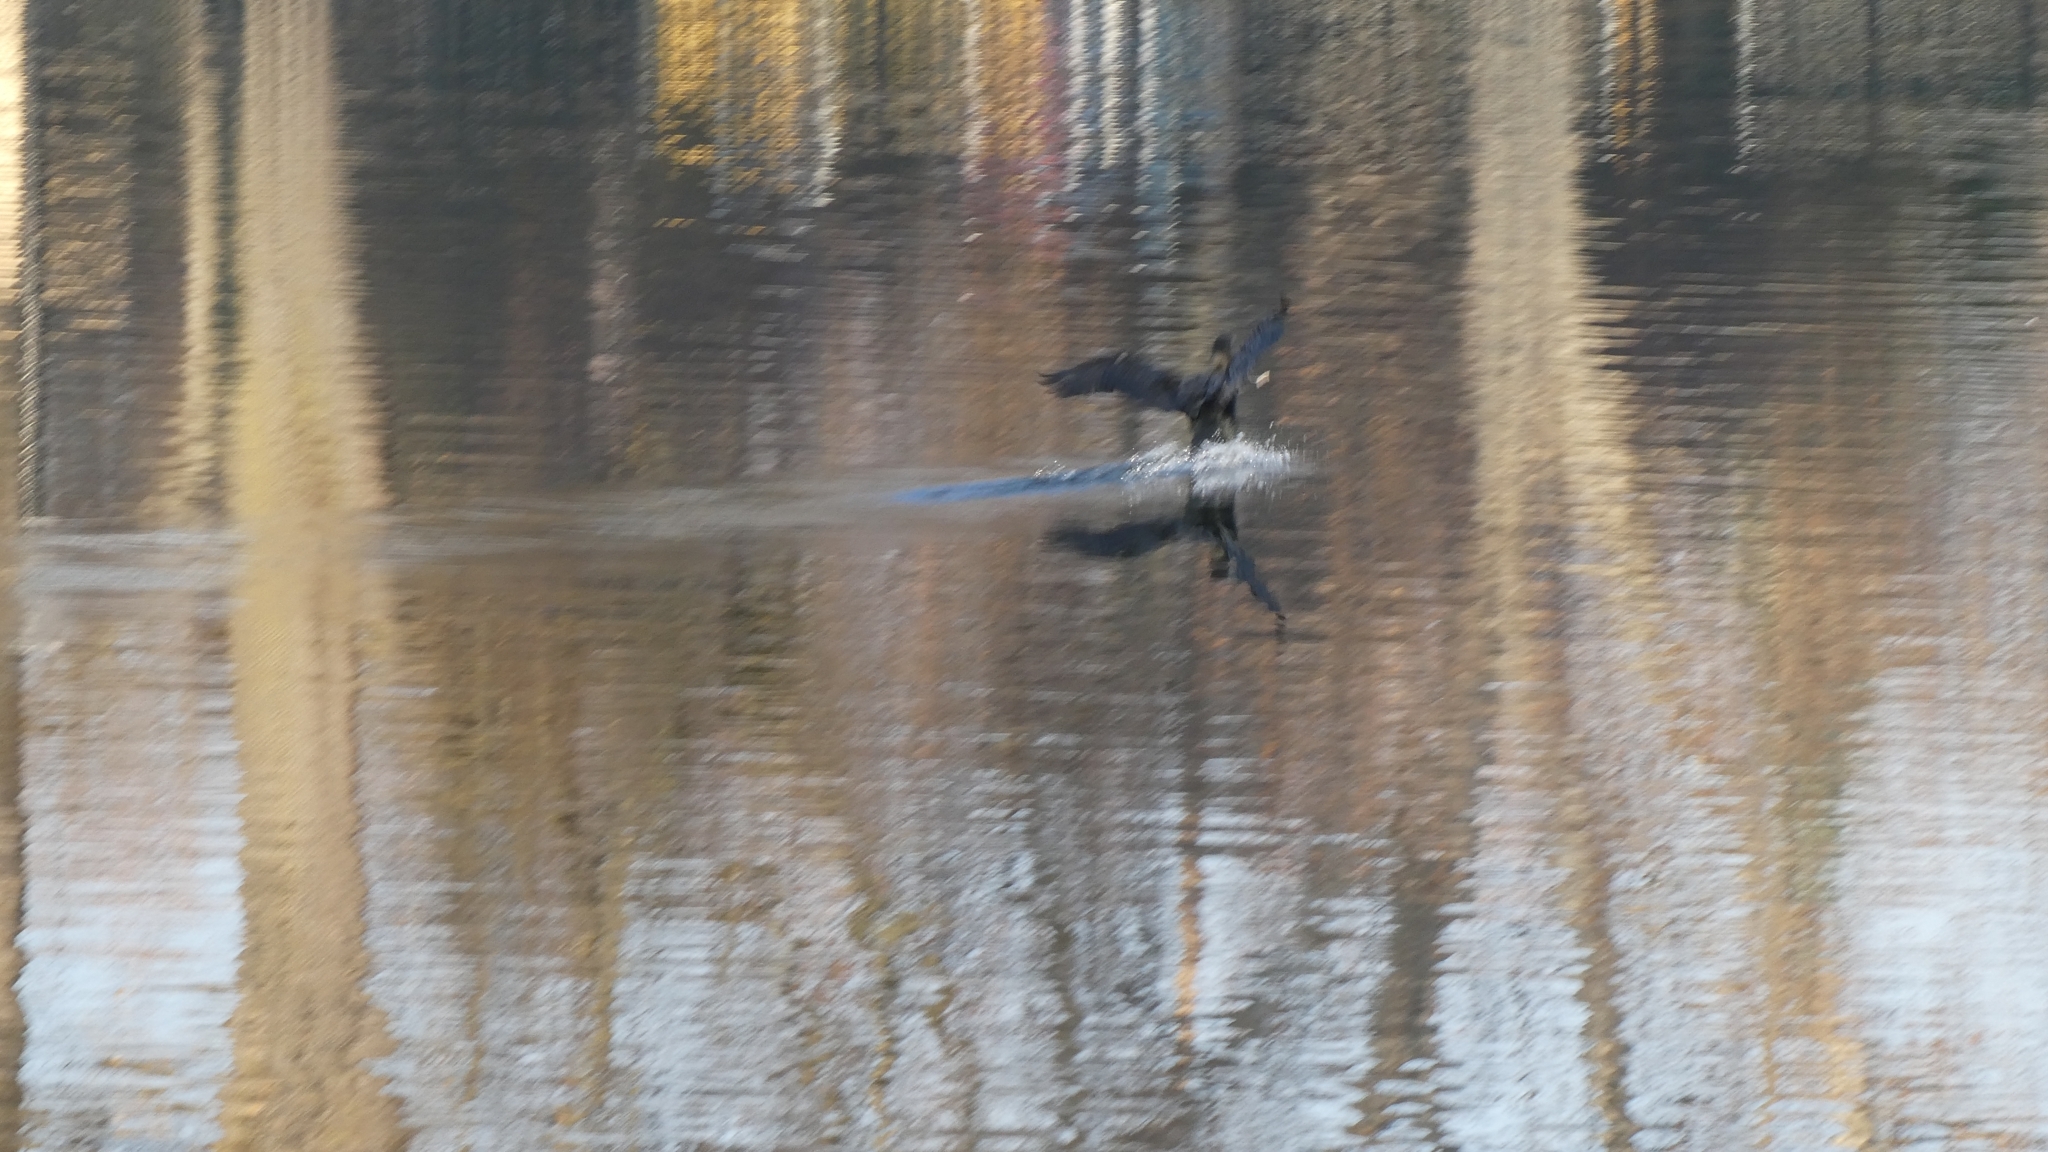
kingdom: Animalia
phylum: Chordata
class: Aves
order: Suliformes
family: Phalacrocoracidae
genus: Phalacrocorax
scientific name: Phalacrocorax auritus
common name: Double-crested cormorant
